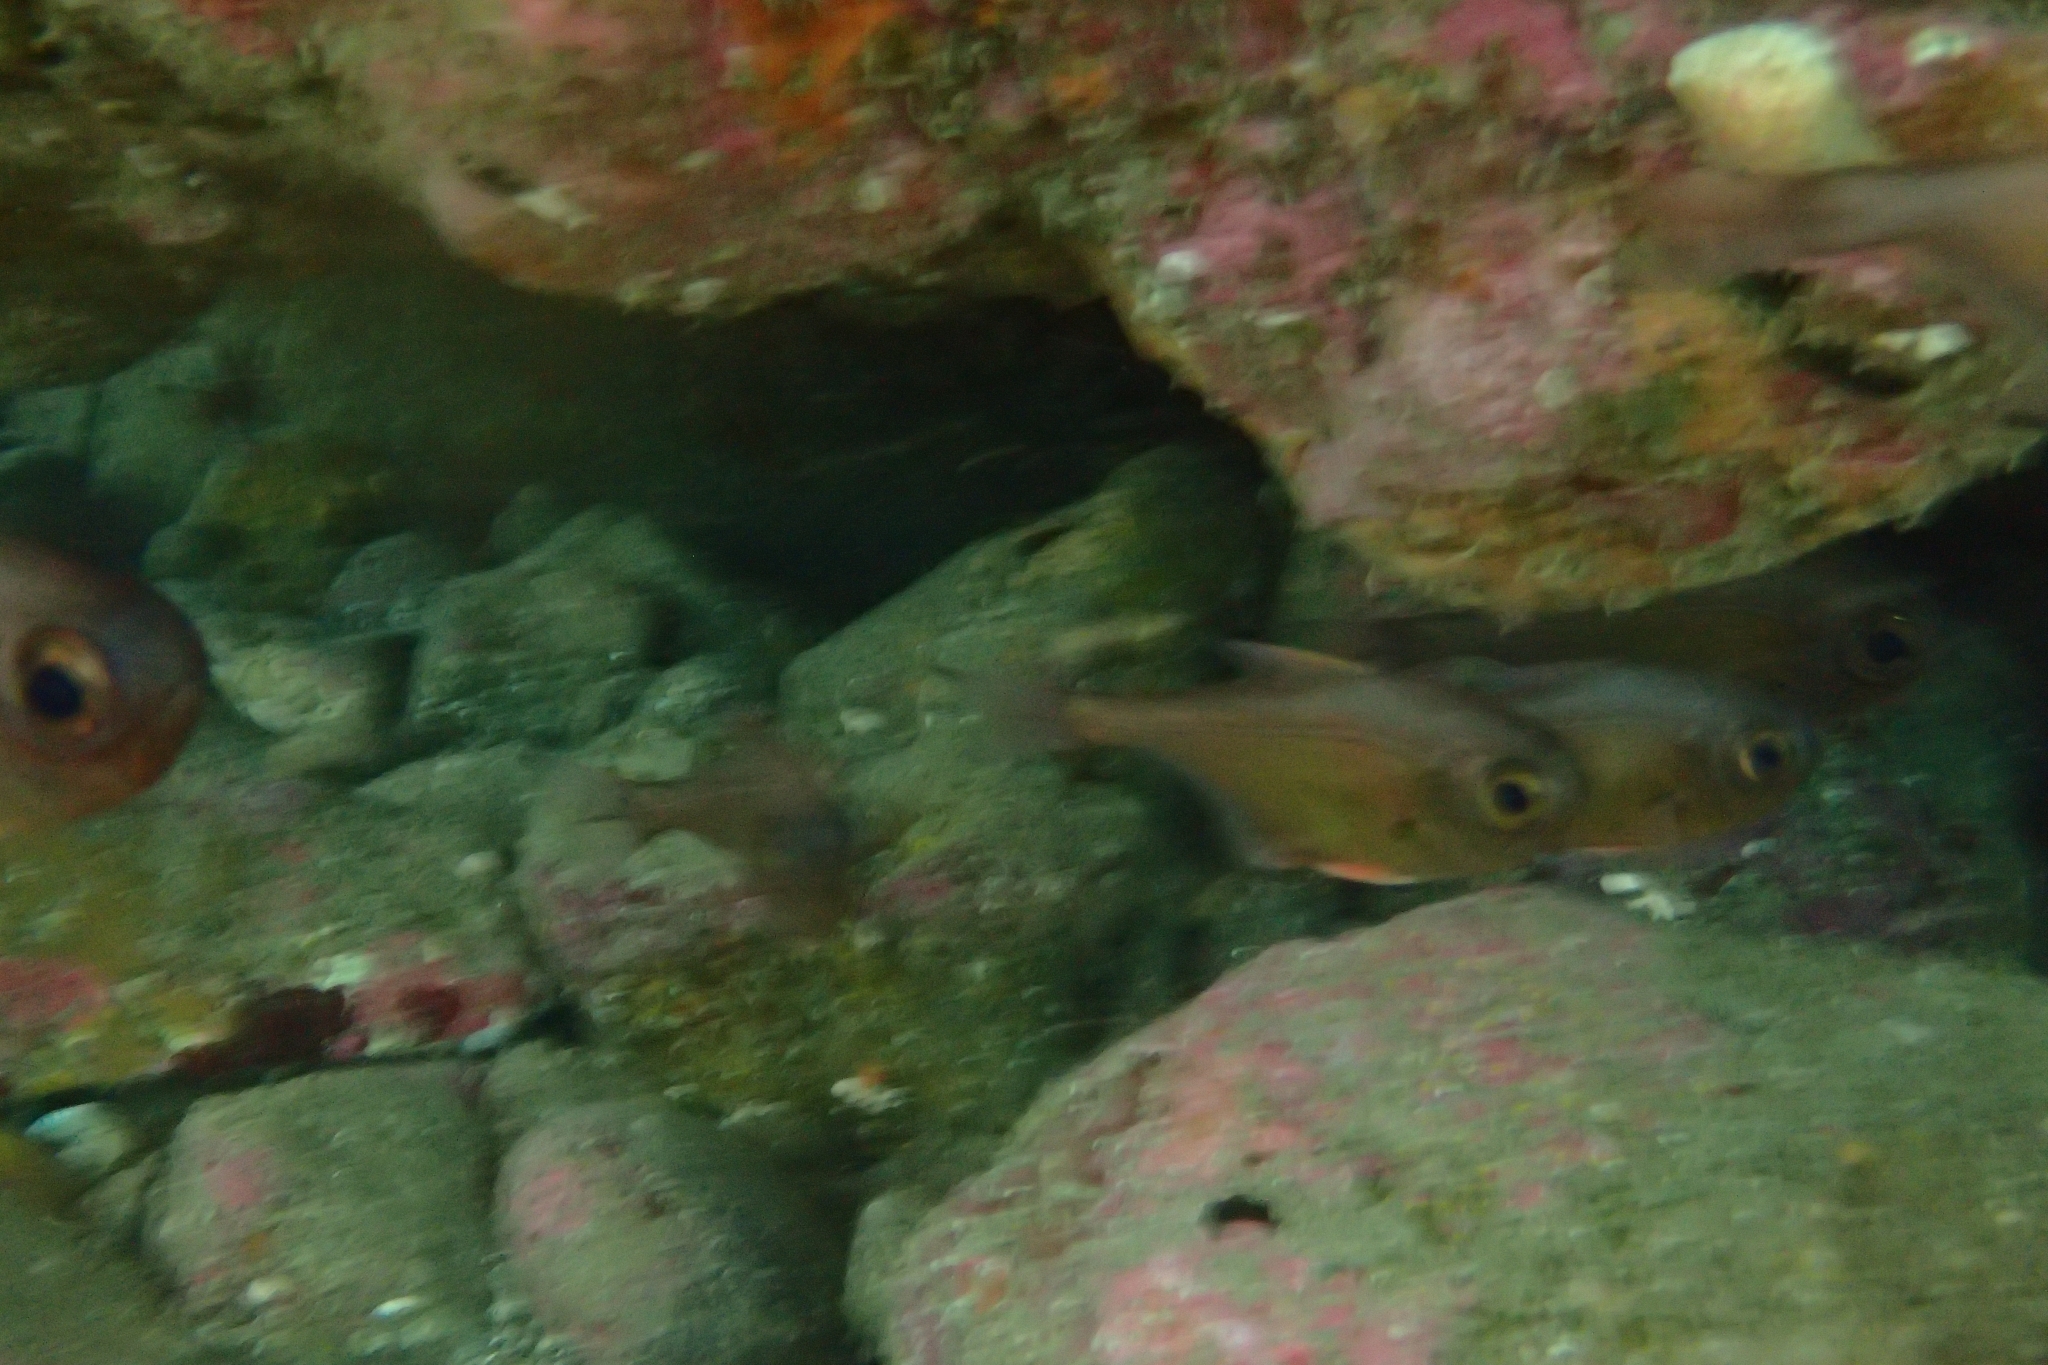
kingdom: Animalia
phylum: Chordata
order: Perciformes
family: Pempheridae
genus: Pempheris
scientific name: Pempheris adspersa
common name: Bigeye
